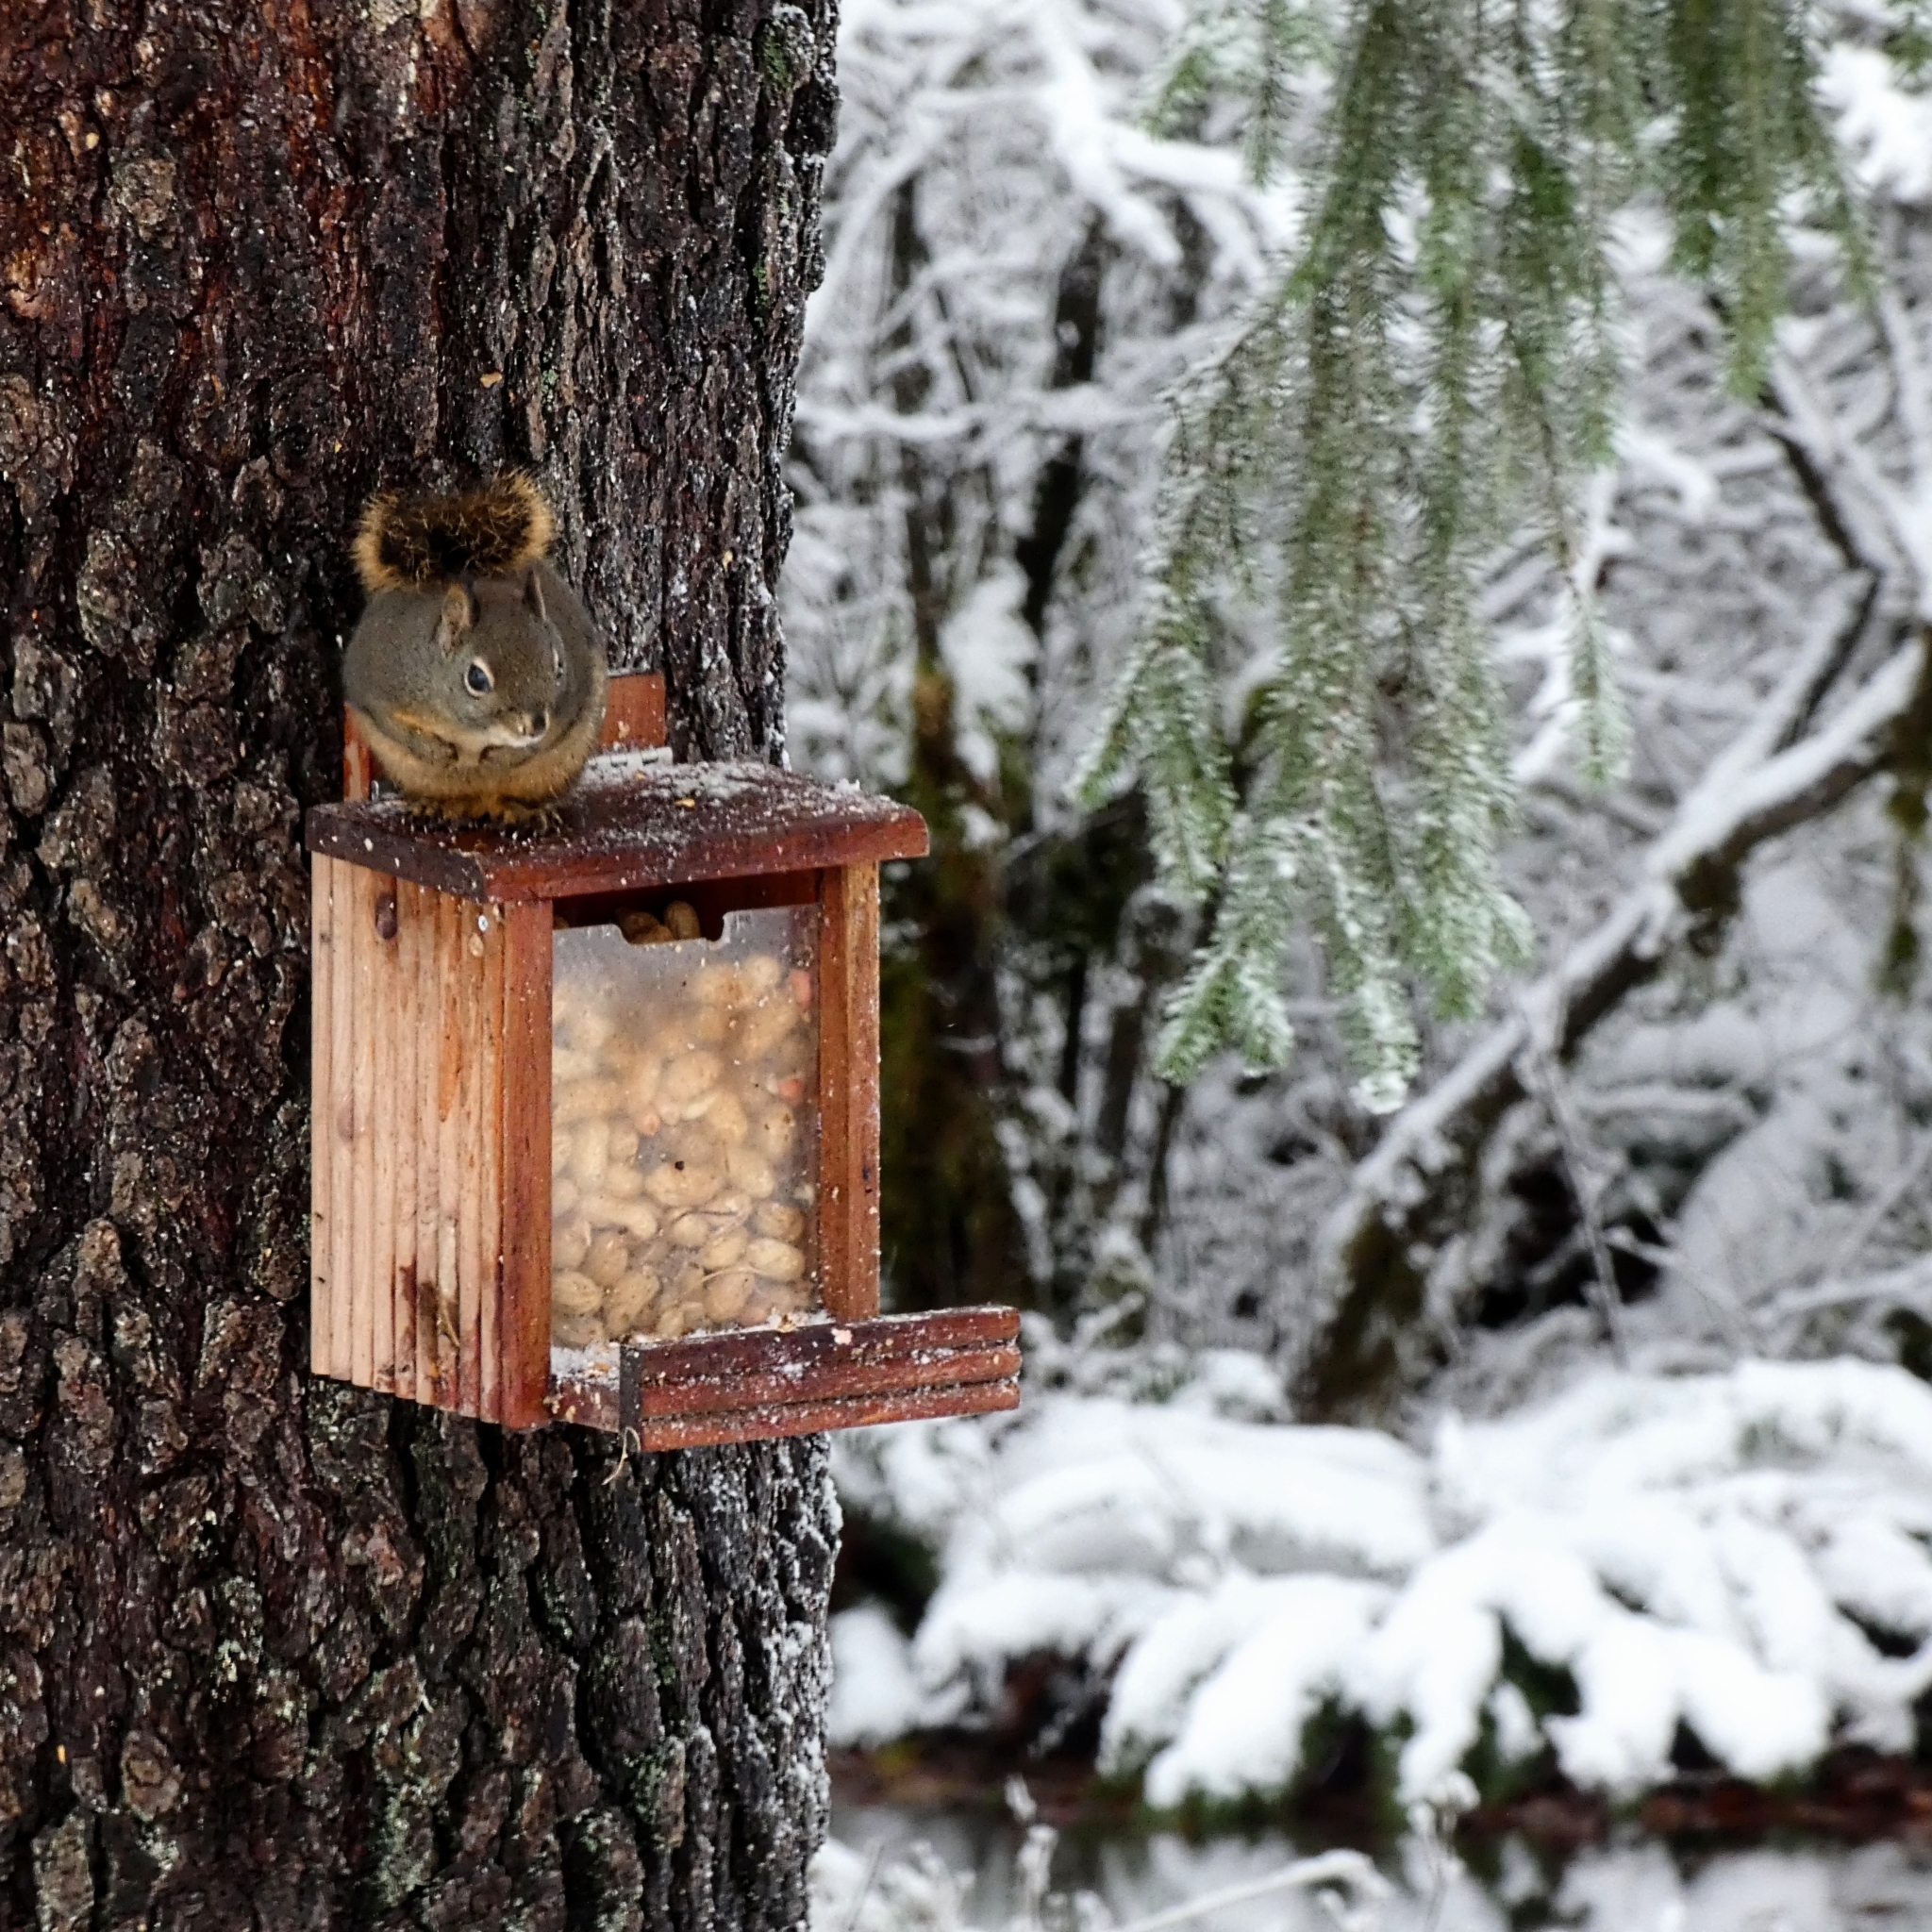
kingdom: Animalia
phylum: Chordata
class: Mammalia
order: Rodentia
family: Sciuridae
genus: Tamiasciurus
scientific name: Tamiasciurus douglasii
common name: Douglas's squirrel
